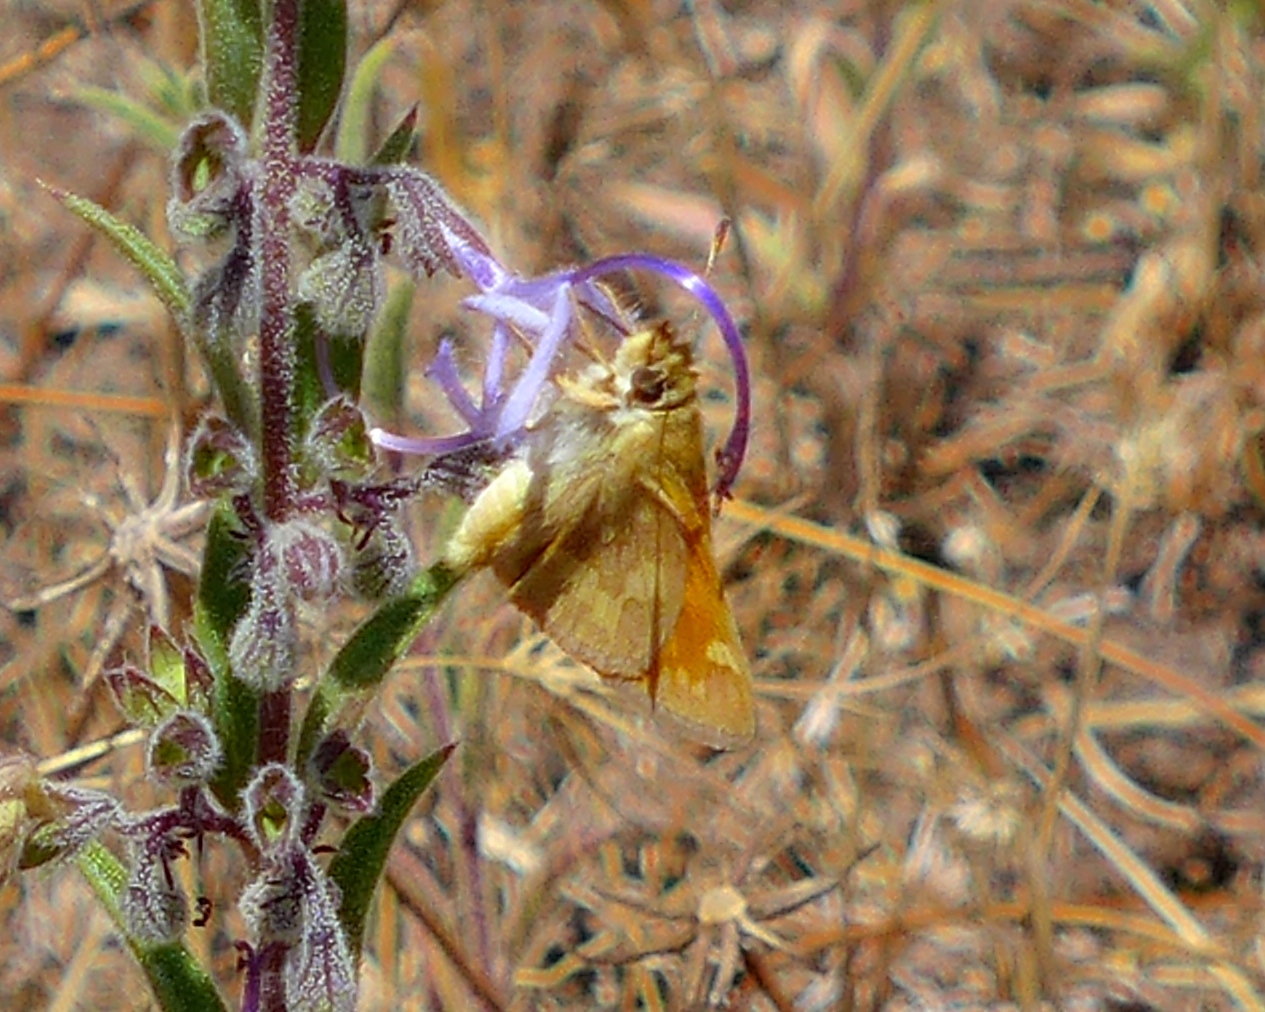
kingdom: Animalia
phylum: Arthropoda
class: Insecta
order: Lepidoptera
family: Hesperiidae
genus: Ochlodes
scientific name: Ochlodes sylvanoides
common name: Woodland skipper
